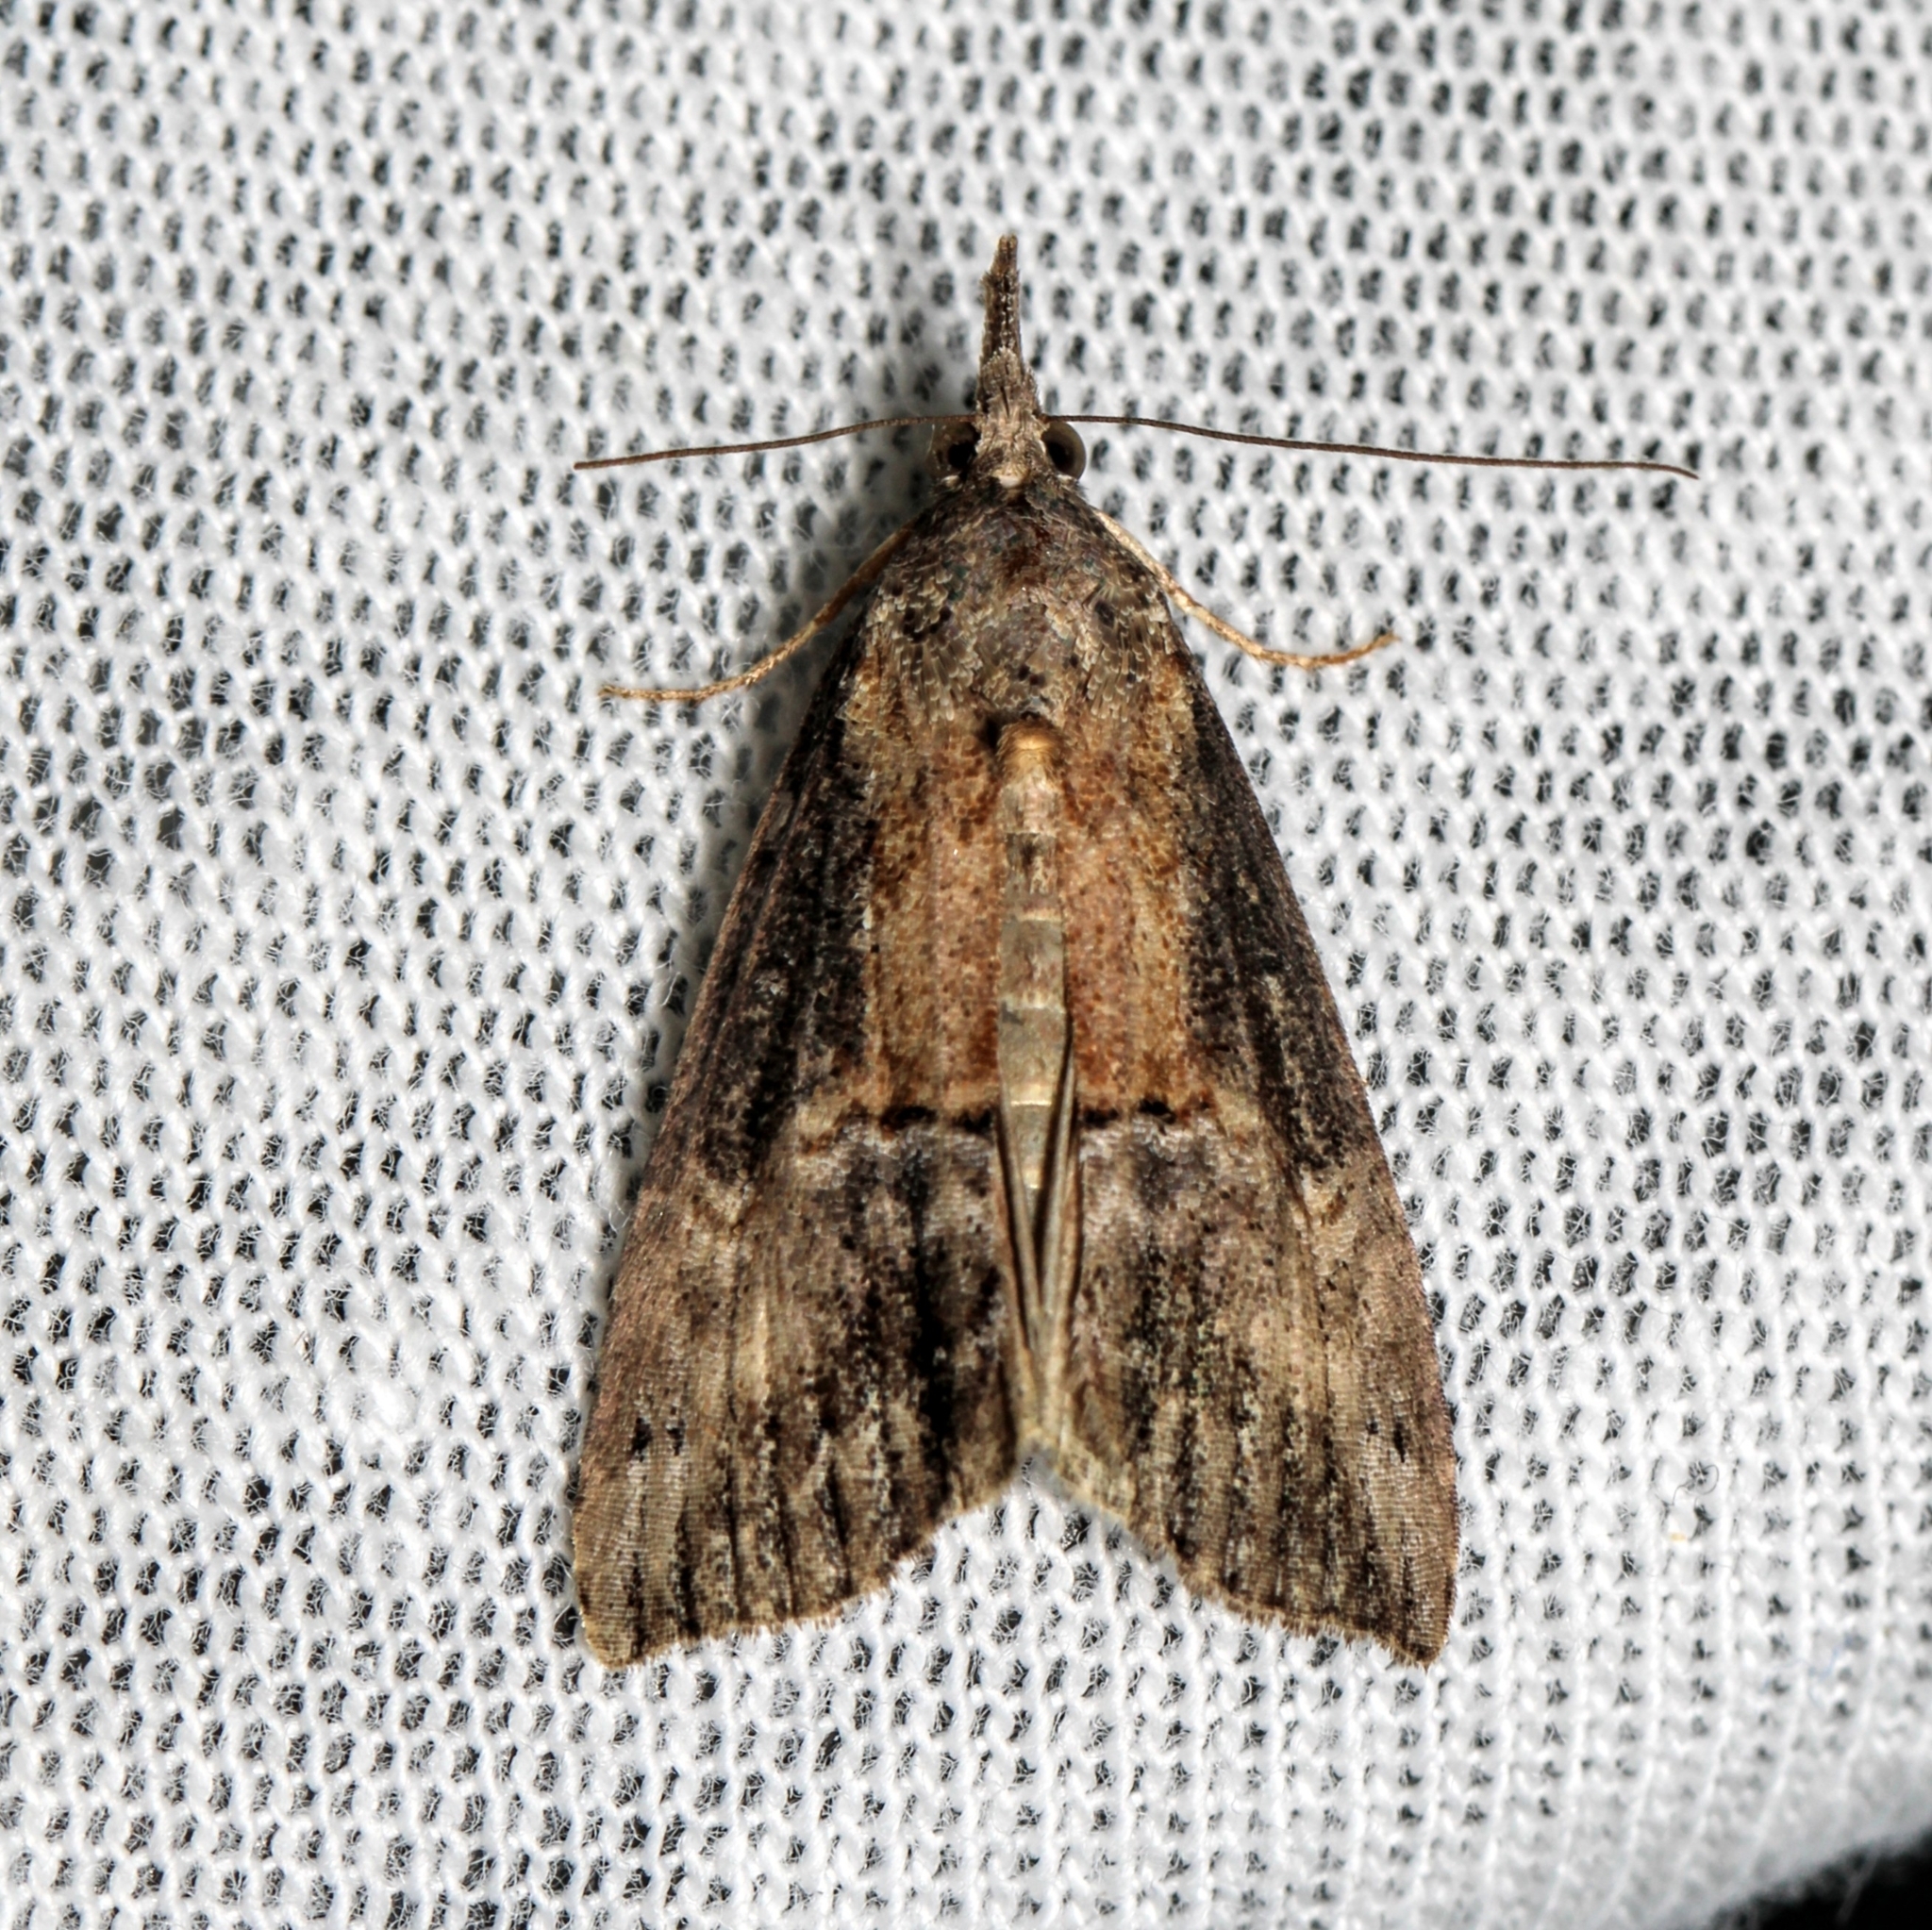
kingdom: Animalia
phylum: Arthropoda
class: Insecta
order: Lepidoptera
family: Erebidae
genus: Hypena
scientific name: Hypena scabra
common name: Green cloverworm
